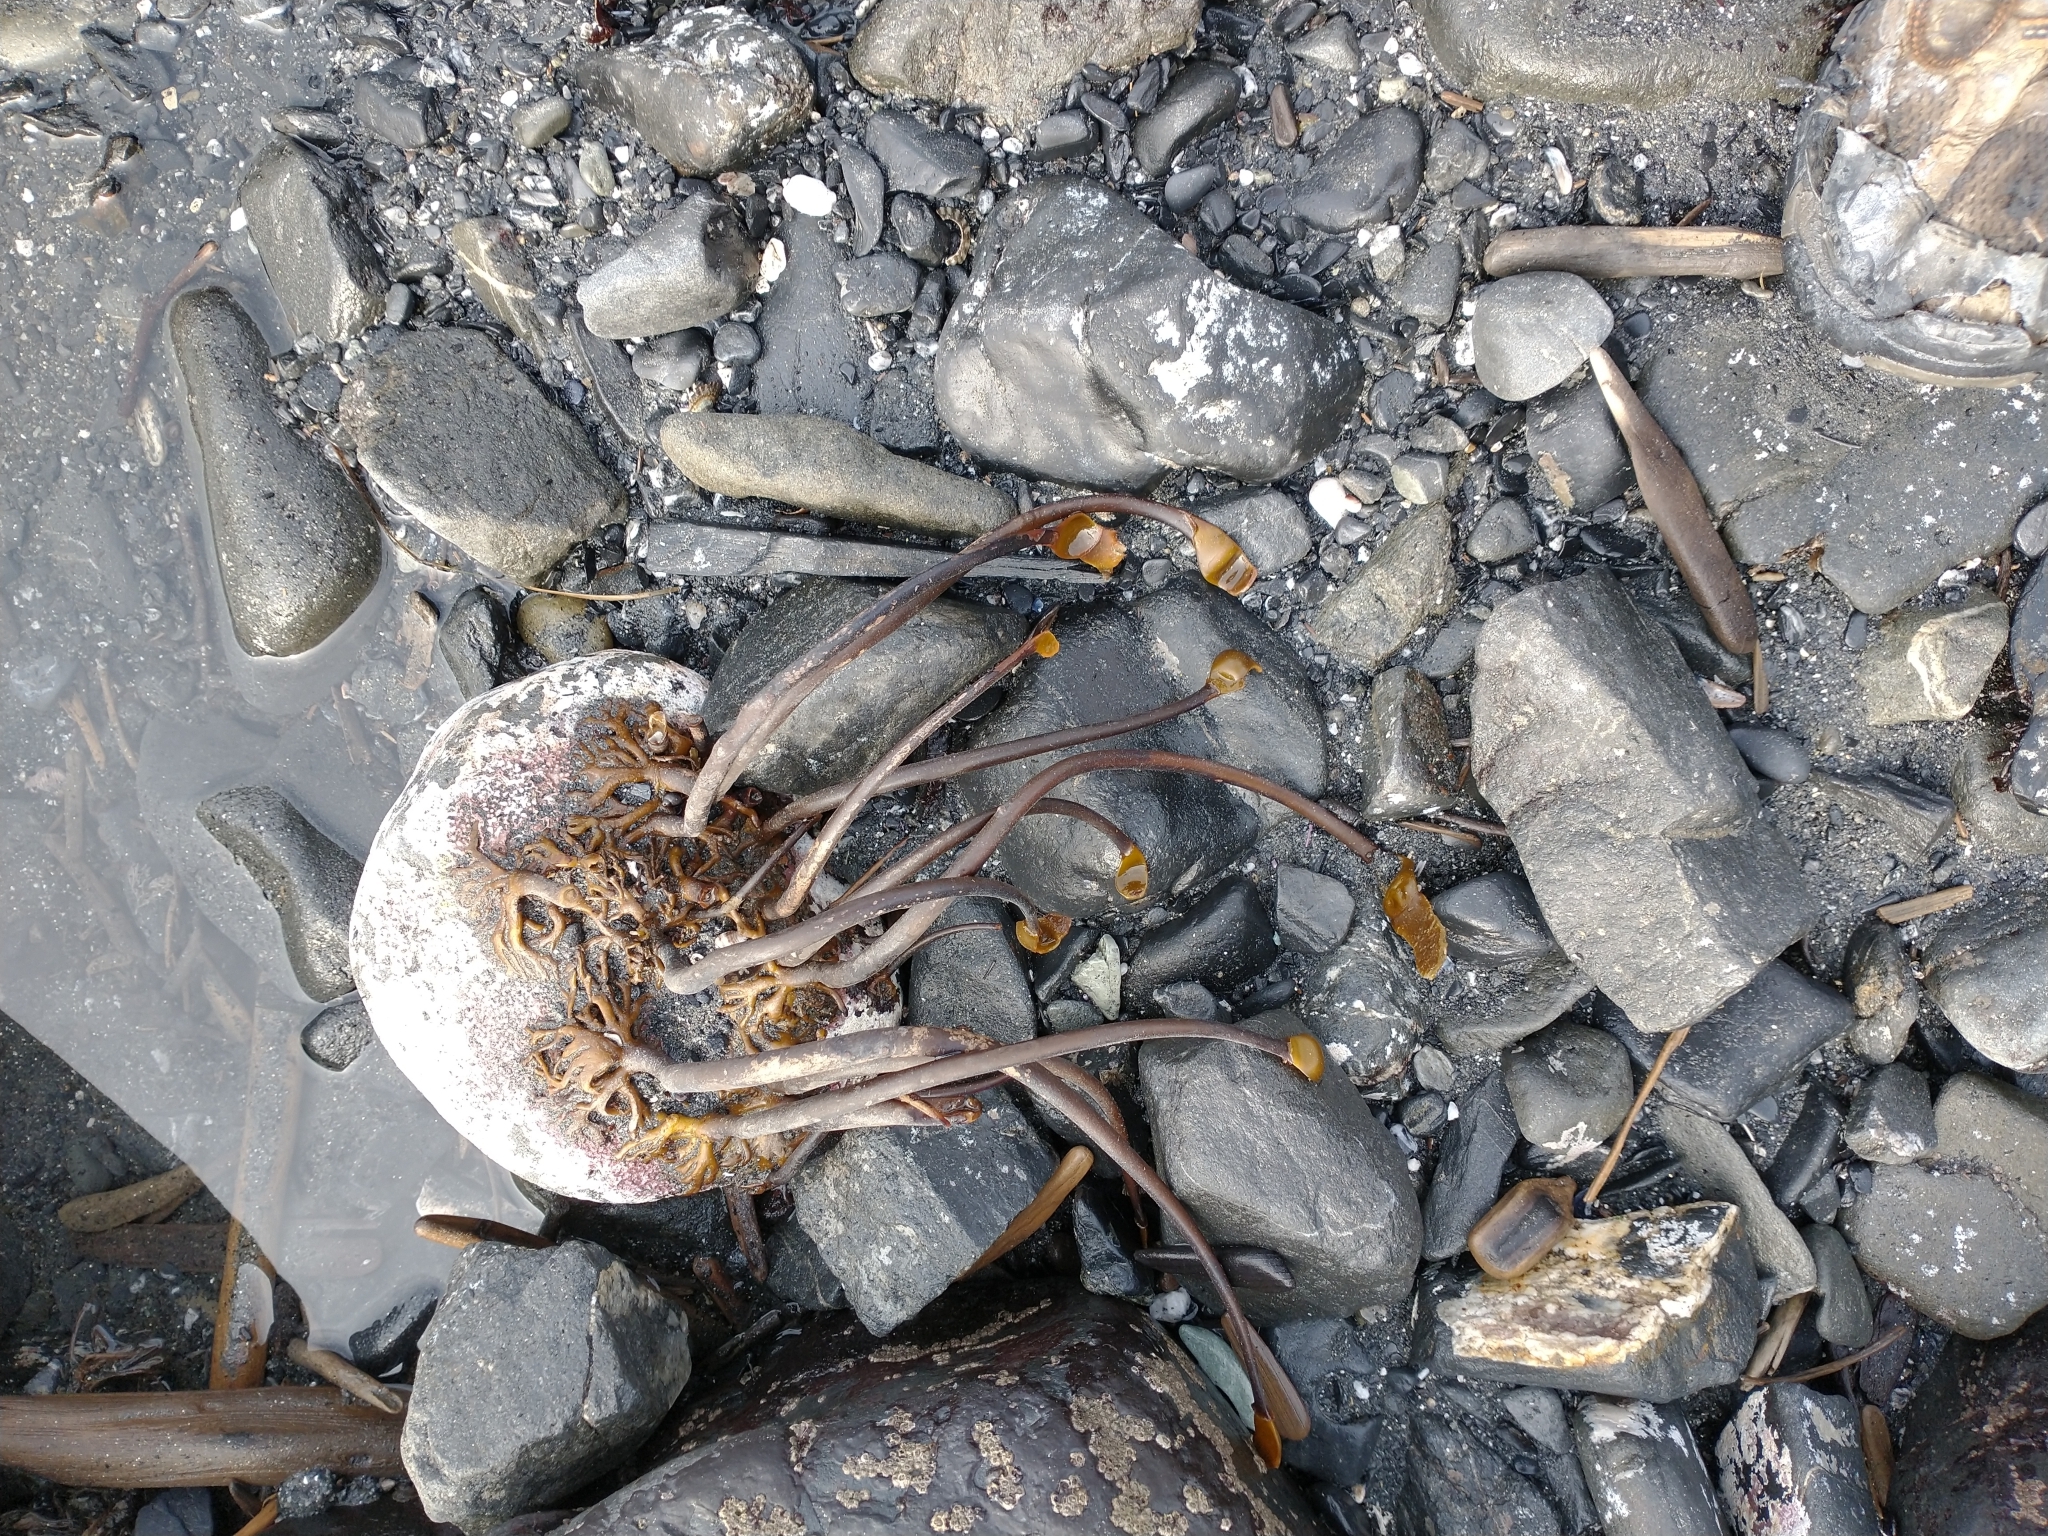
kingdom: Chromista
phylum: Ochrophyta
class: Phaeophyceae
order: Laminariales
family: Laminariaceae
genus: Laminaria
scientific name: Laminaria setchellii
